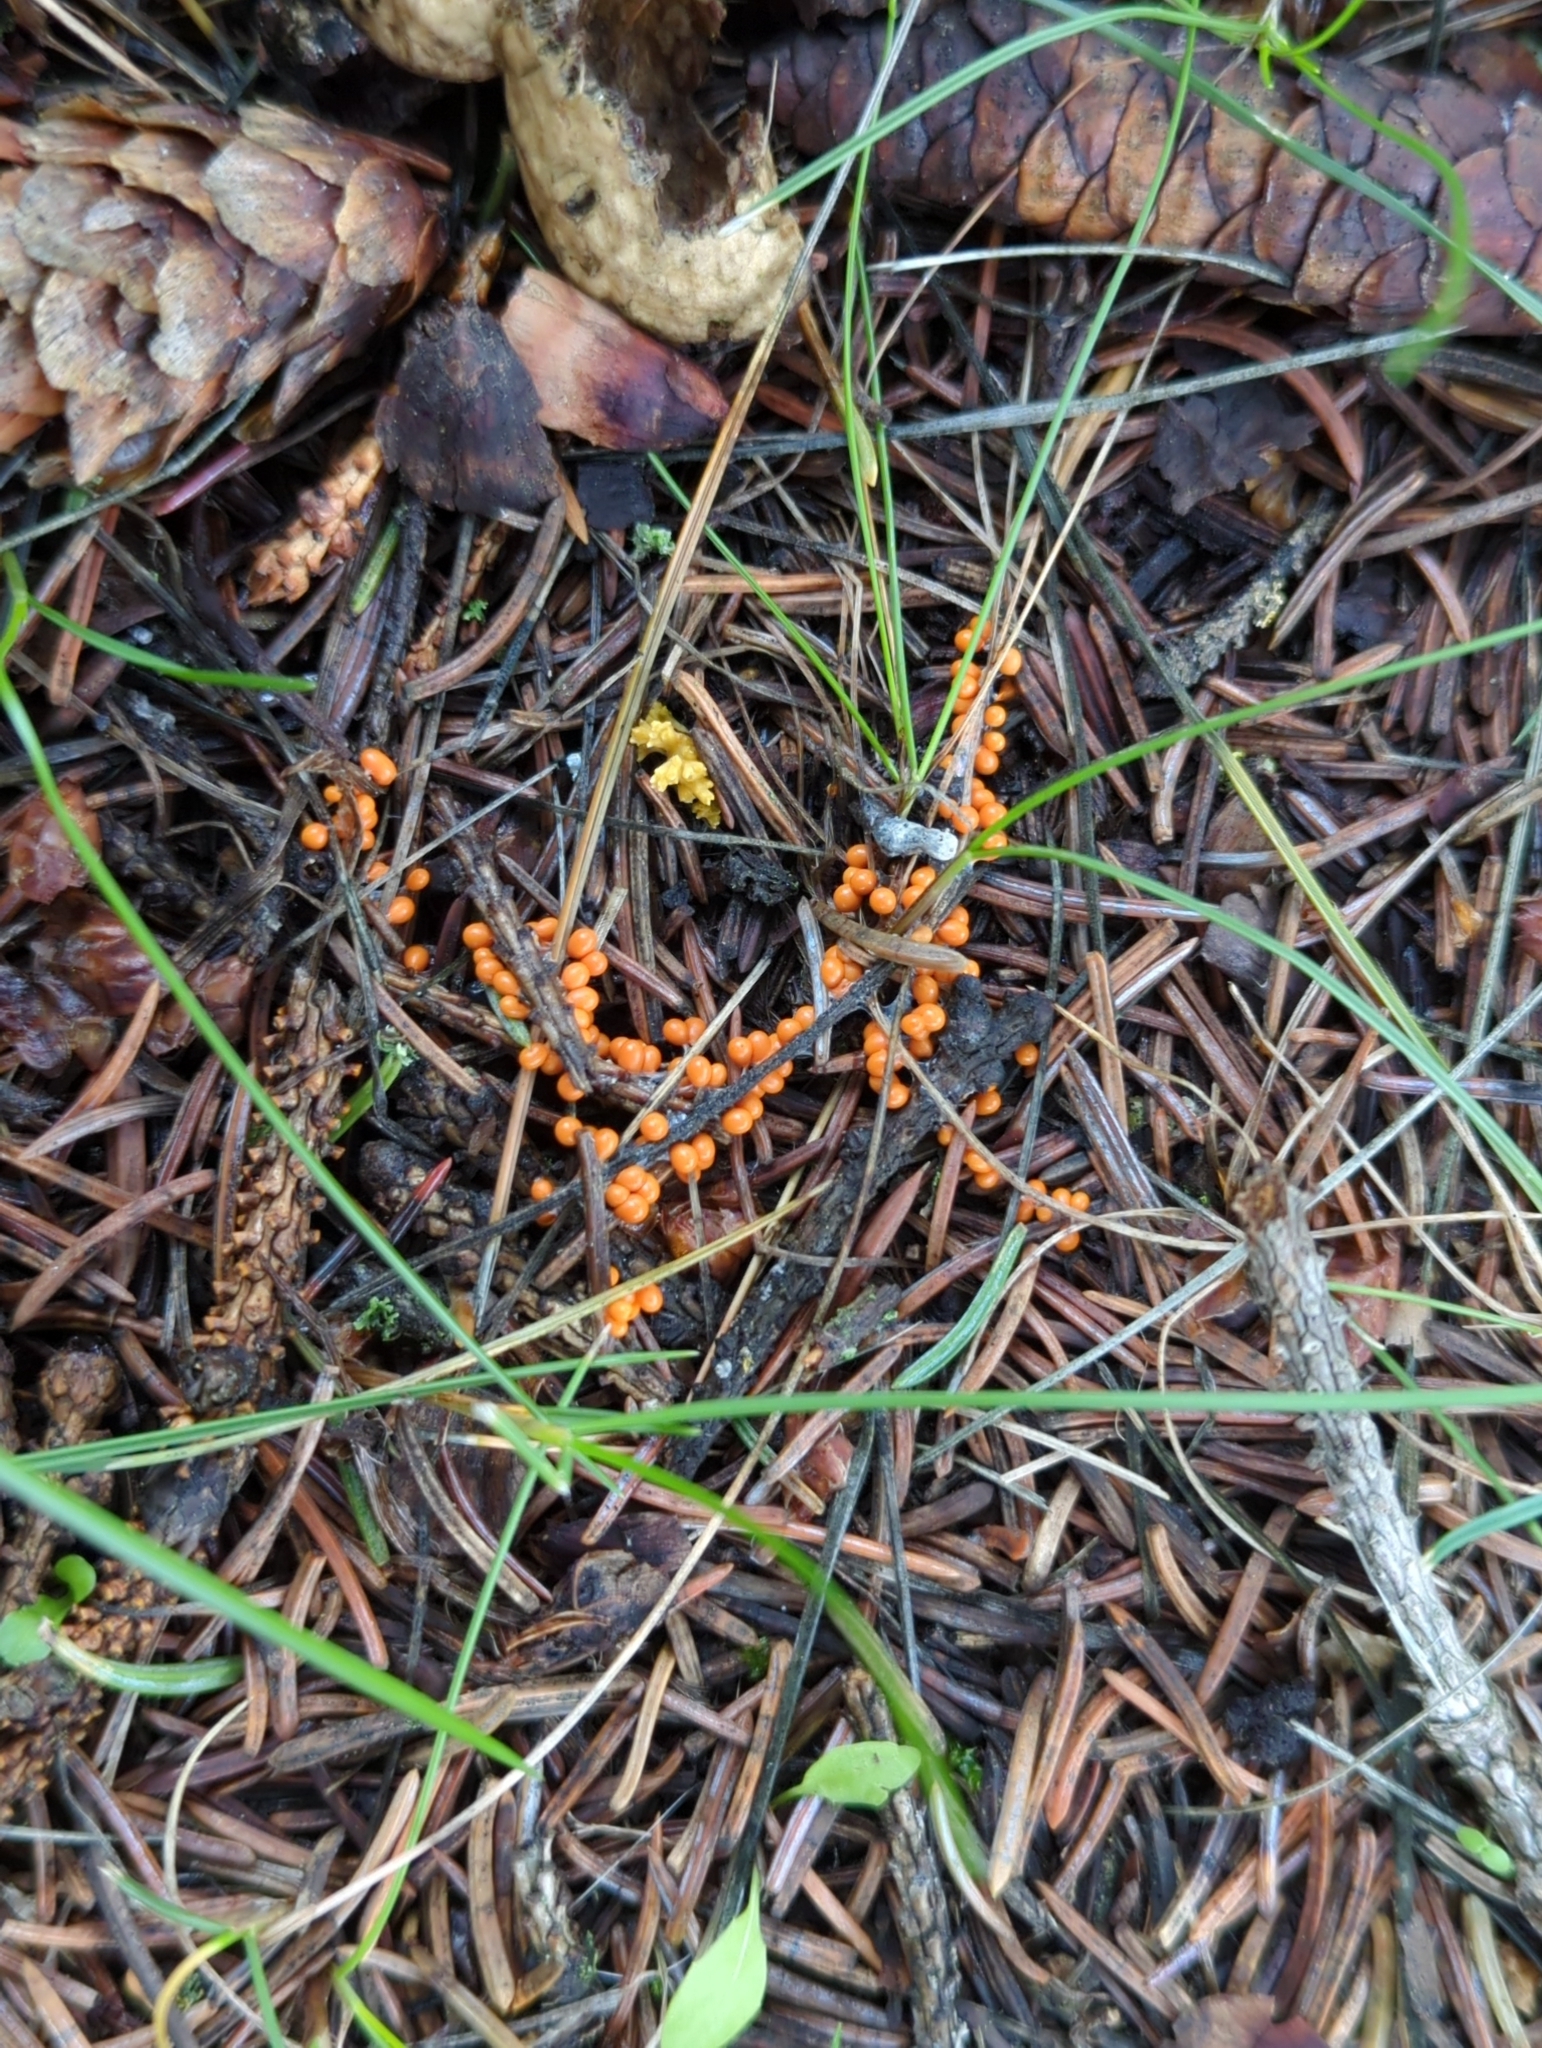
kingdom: Protozoa
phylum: Mycetozoa
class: Myxomycetes
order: Physarales
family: Physaraceae
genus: Leocarpus
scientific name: Leocarpus fragilis
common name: Insect-egg slime
